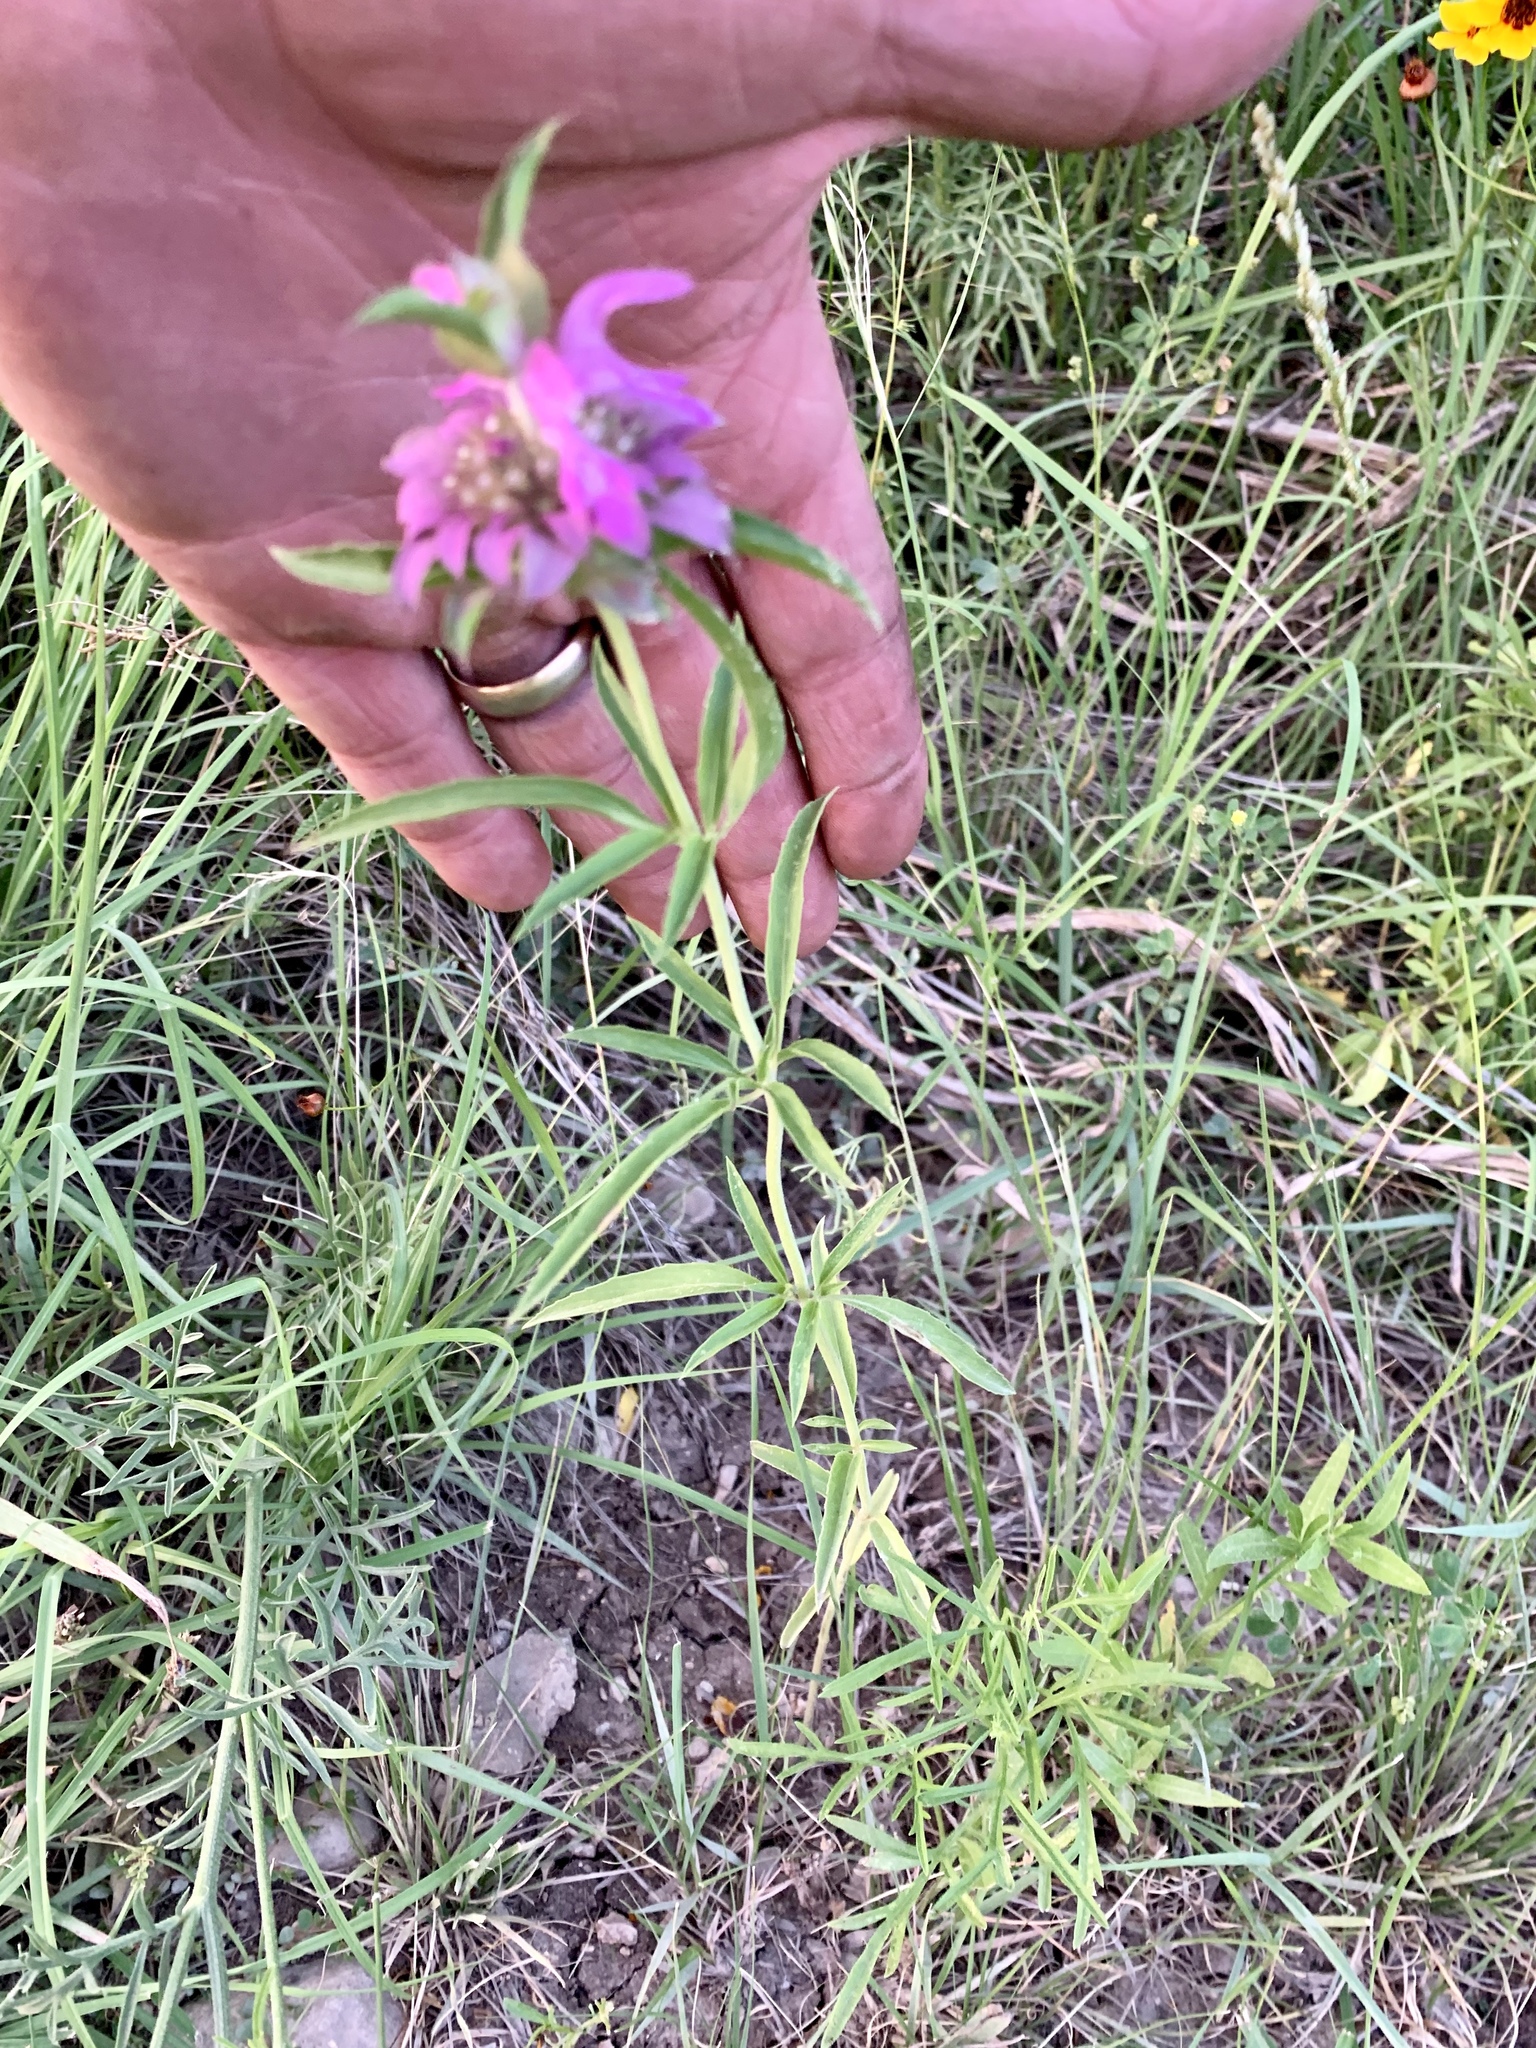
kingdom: Plantae
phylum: Tracheophyta
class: Magnoliopsida
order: Lamiales
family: Lamiaceae
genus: Monarda
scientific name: Monarda citriodora
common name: Lemon beebalm
